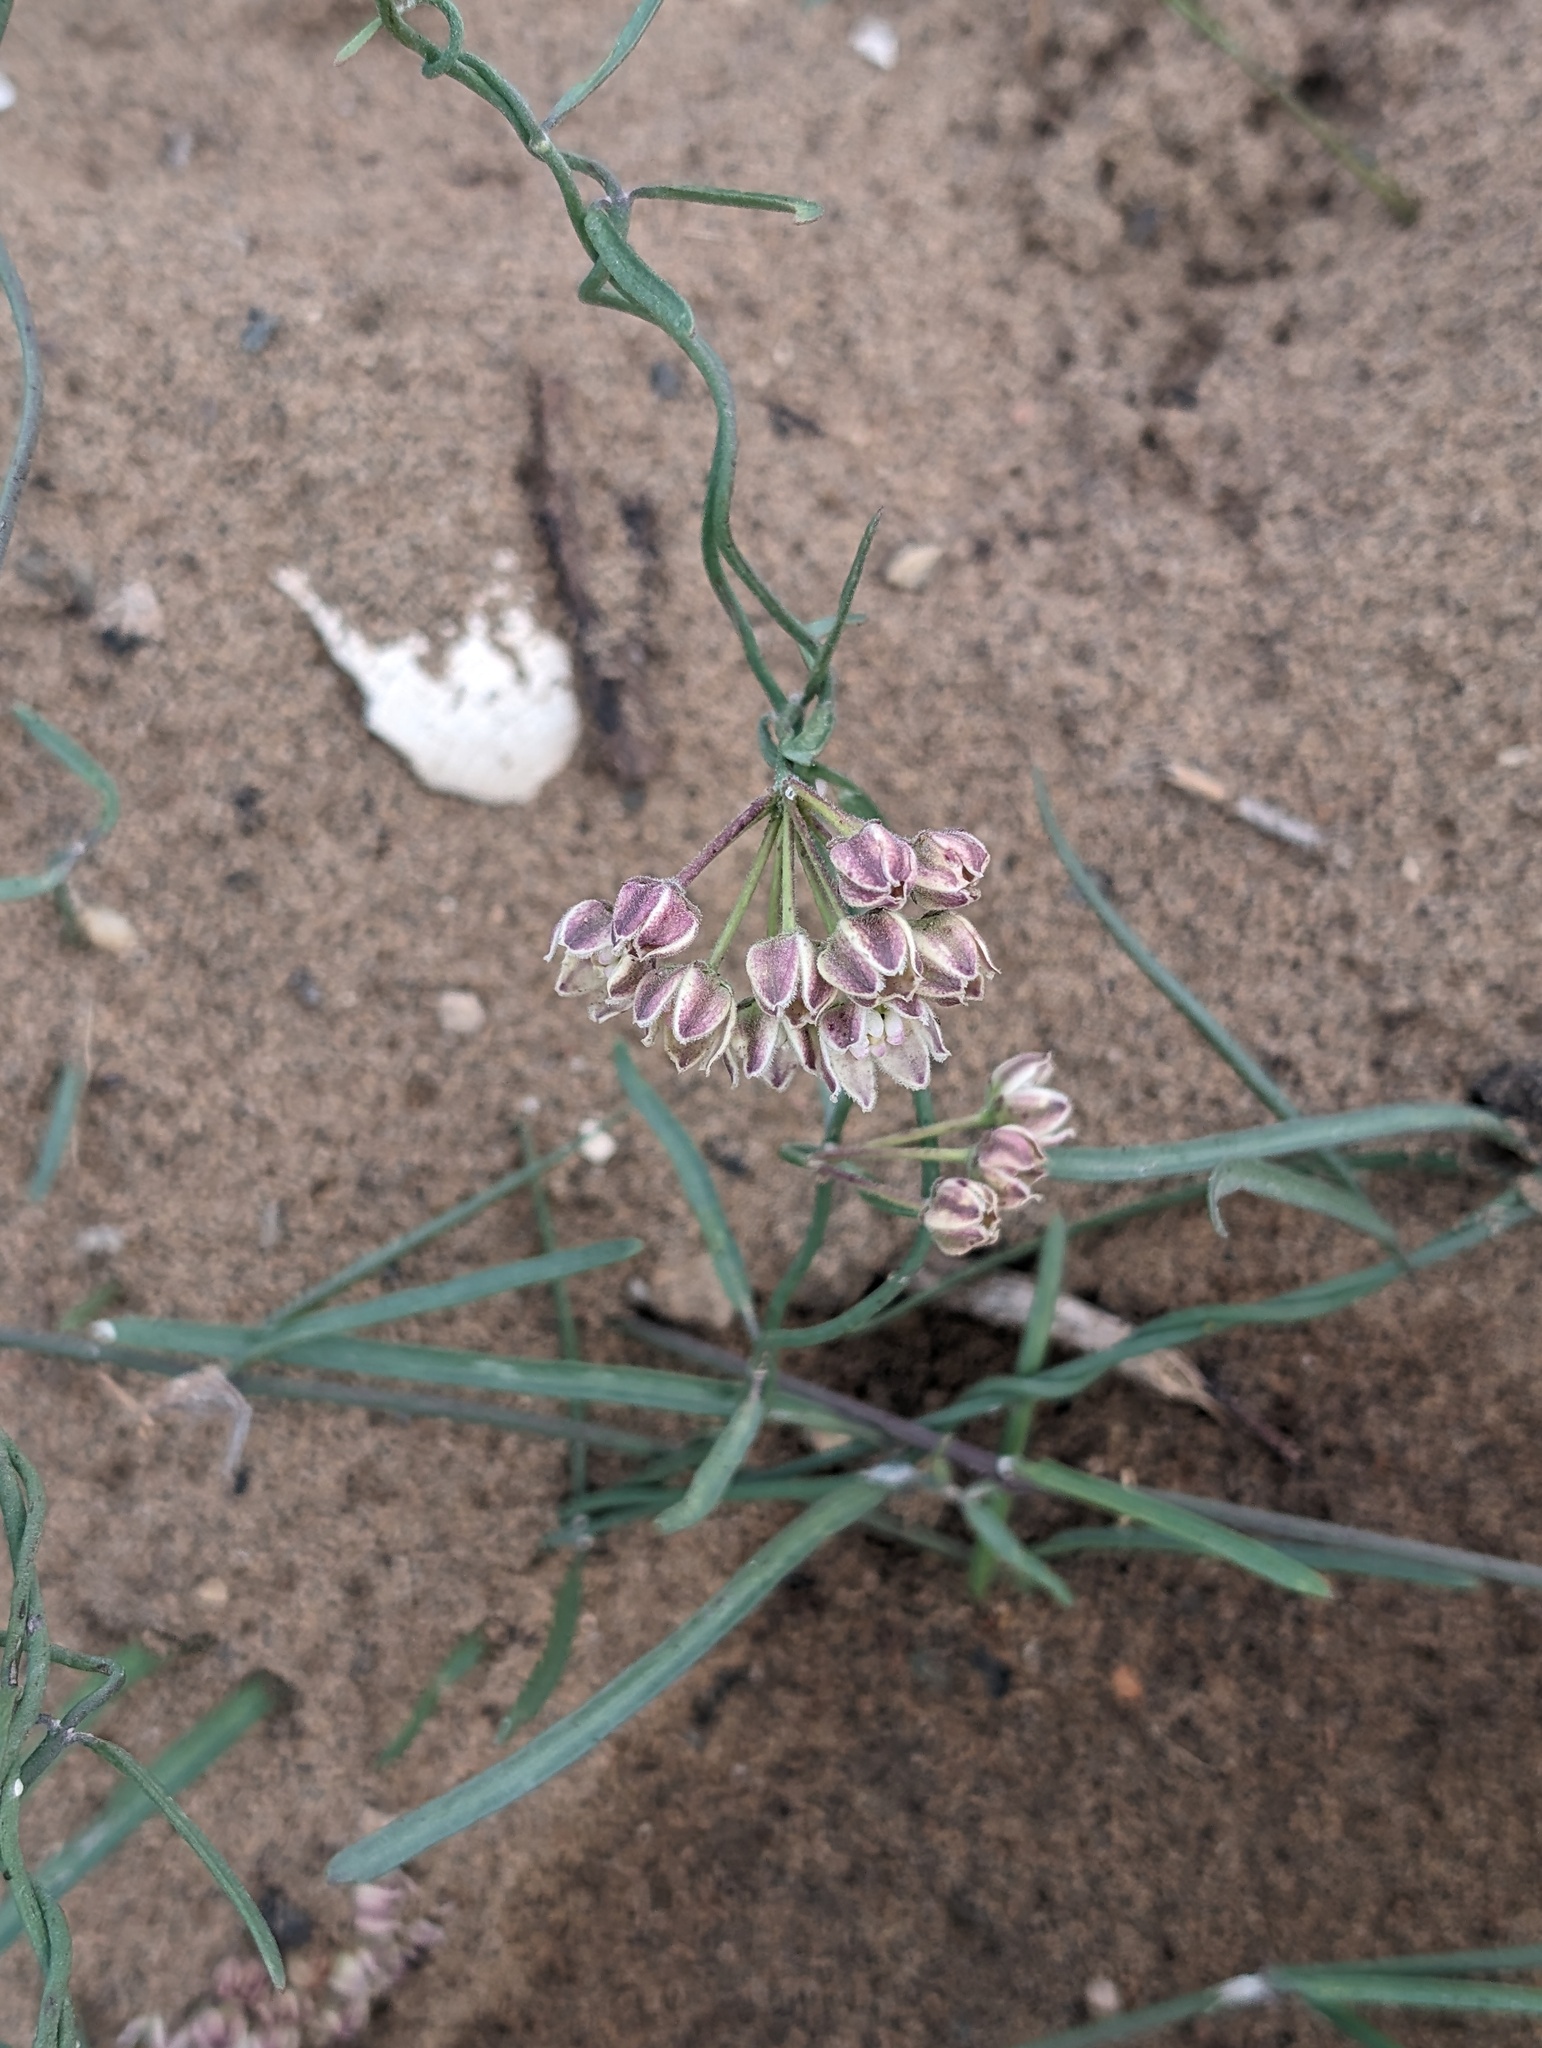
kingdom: Plantae
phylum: Tracheophyta
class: Magnoliopsida
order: Gentianales
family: Apocynaceae
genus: Funastrum
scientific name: Funastrum heterophyllum
